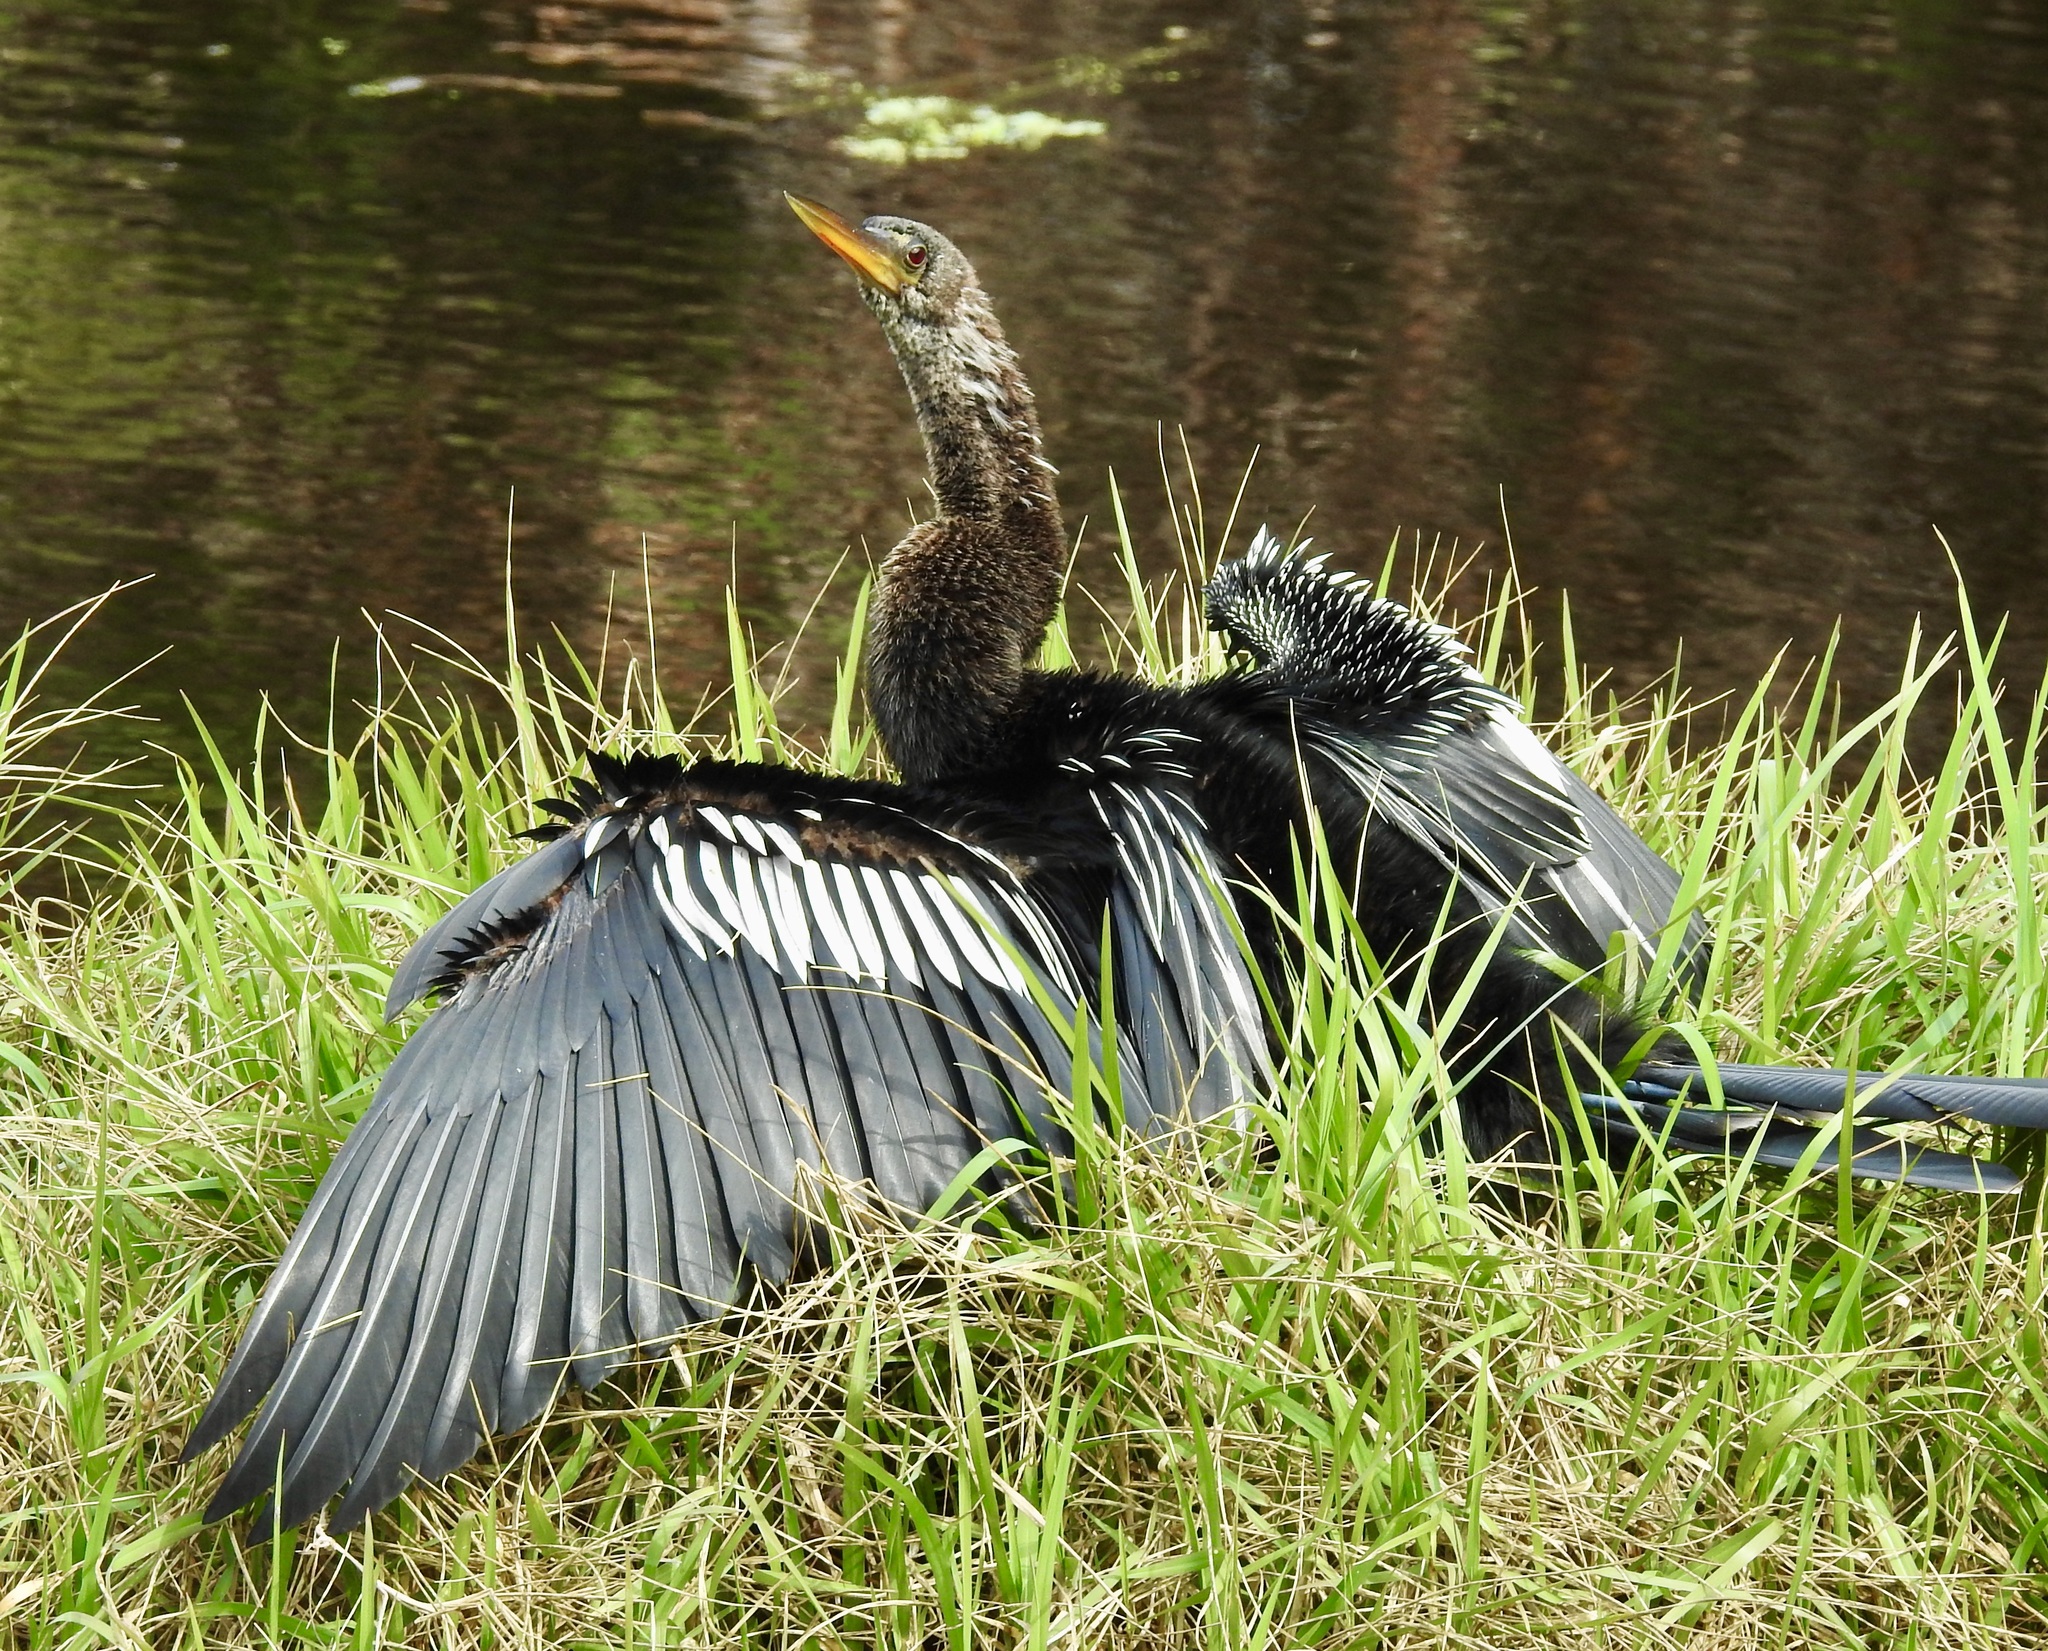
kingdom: Animalia
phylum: Chordata
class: Aves
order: Suliformes
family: Anhingidae
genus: Anhinga
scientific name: Anhinga anhinga
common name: Anhinga
